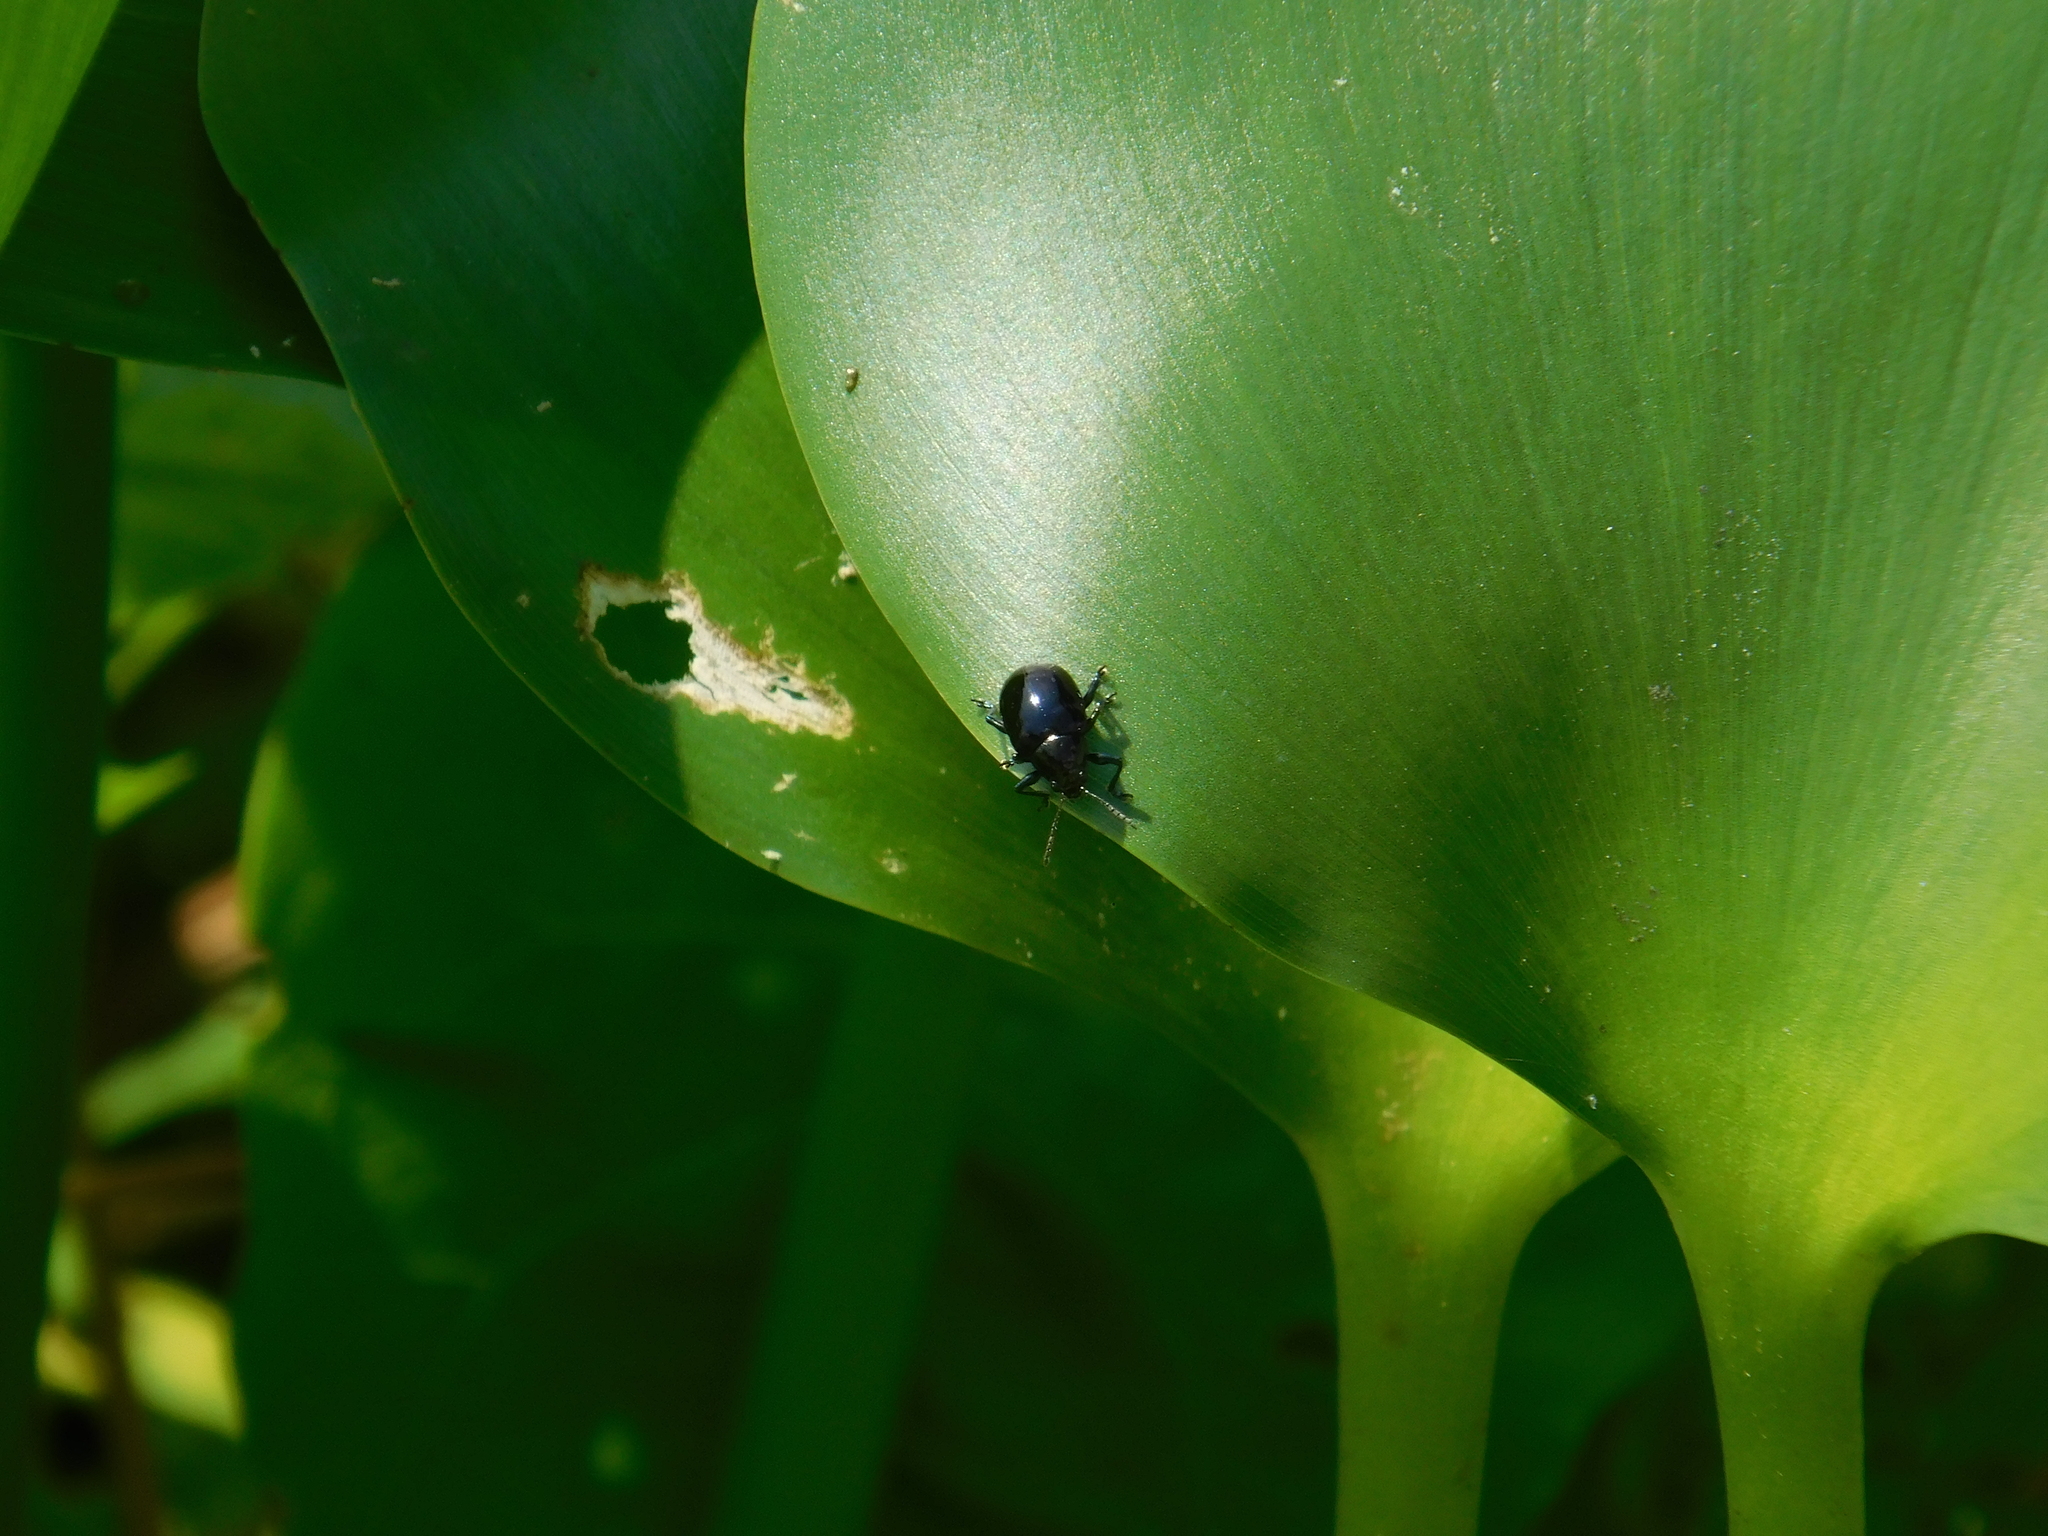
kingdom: Animalia
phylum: Arthropoda
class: Insecta
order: Coleoptera
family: Chrysomelidae
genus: Typophorus
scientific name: Typophorus nigritus
